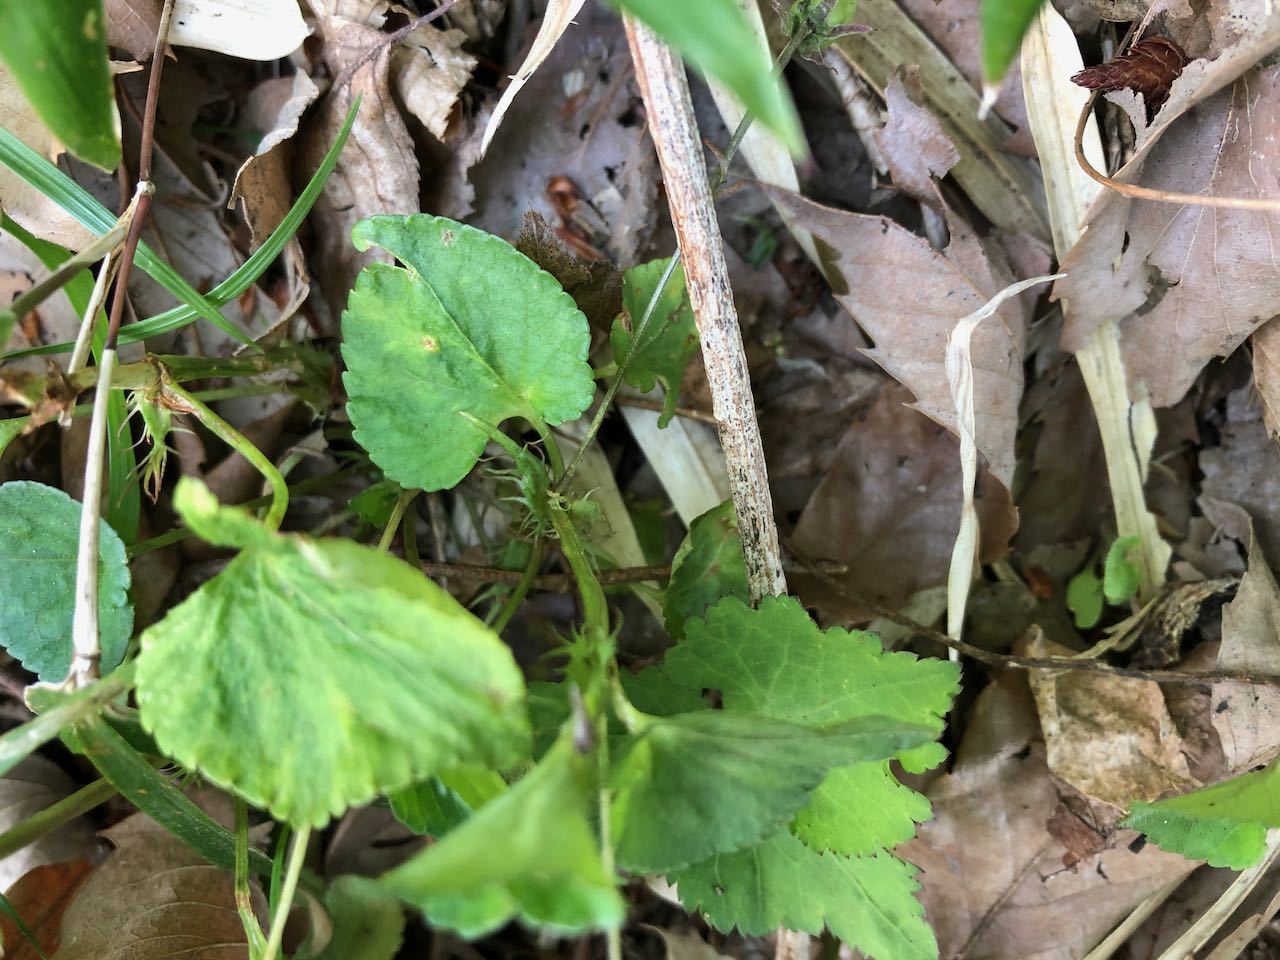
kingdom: Plantae
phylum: Tracheophyta
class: Magnoliopsida
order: Malpighiales
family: Violaceae
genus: Viola
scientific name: Viola grypoceras
